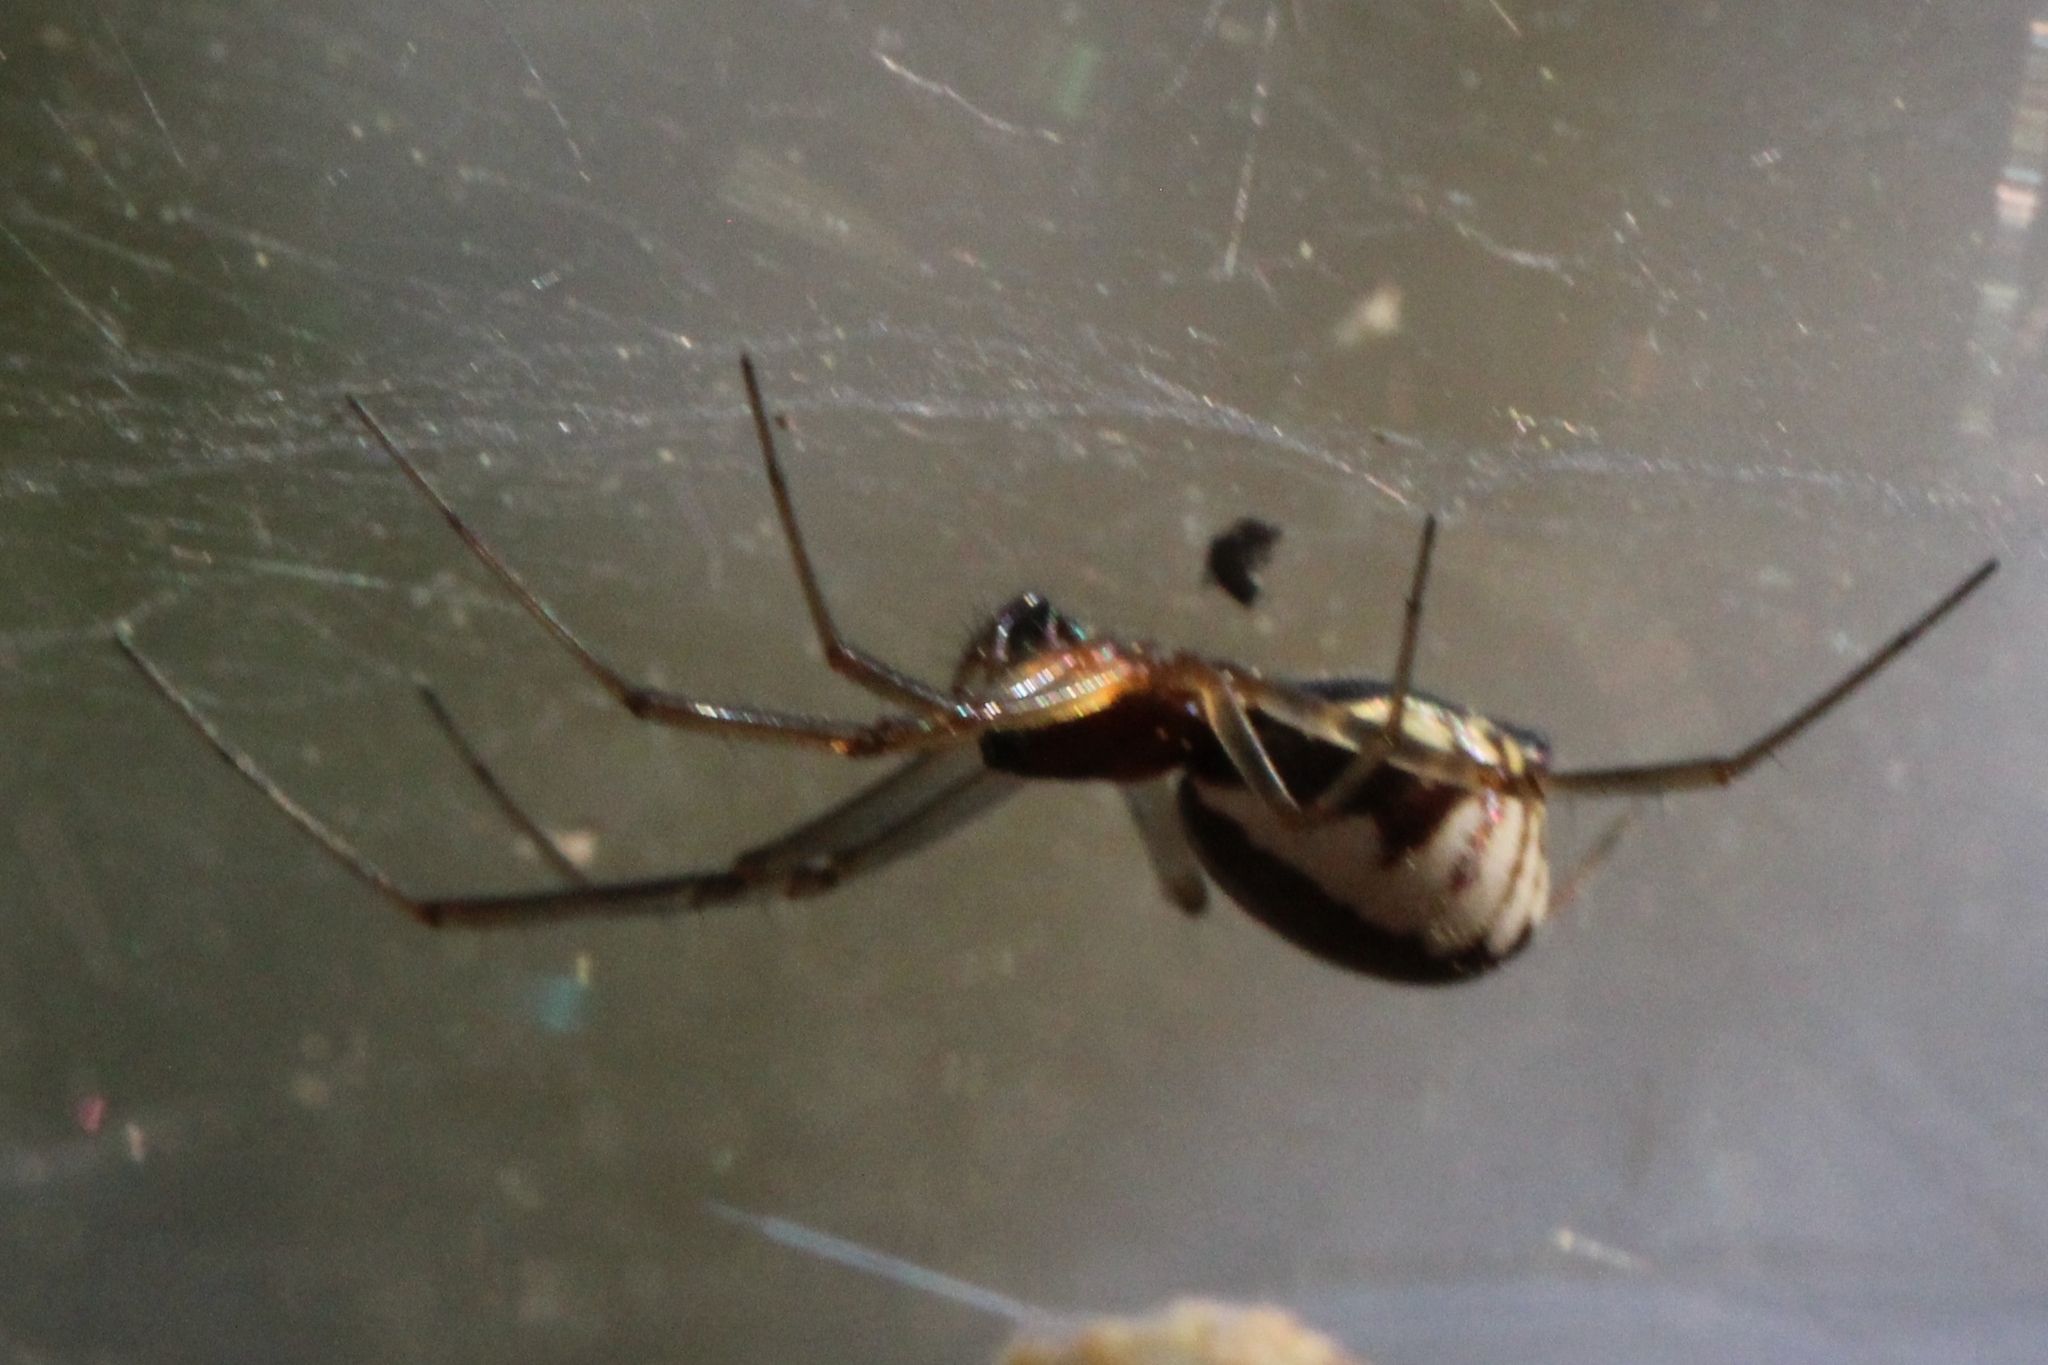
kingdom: Animalia
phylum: Arthropoda
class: Arachnida
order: Araneae
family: Linyphiidae
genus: Frontinella
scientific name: Frontinella pyramitela
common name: Bowl-and-doily spider
